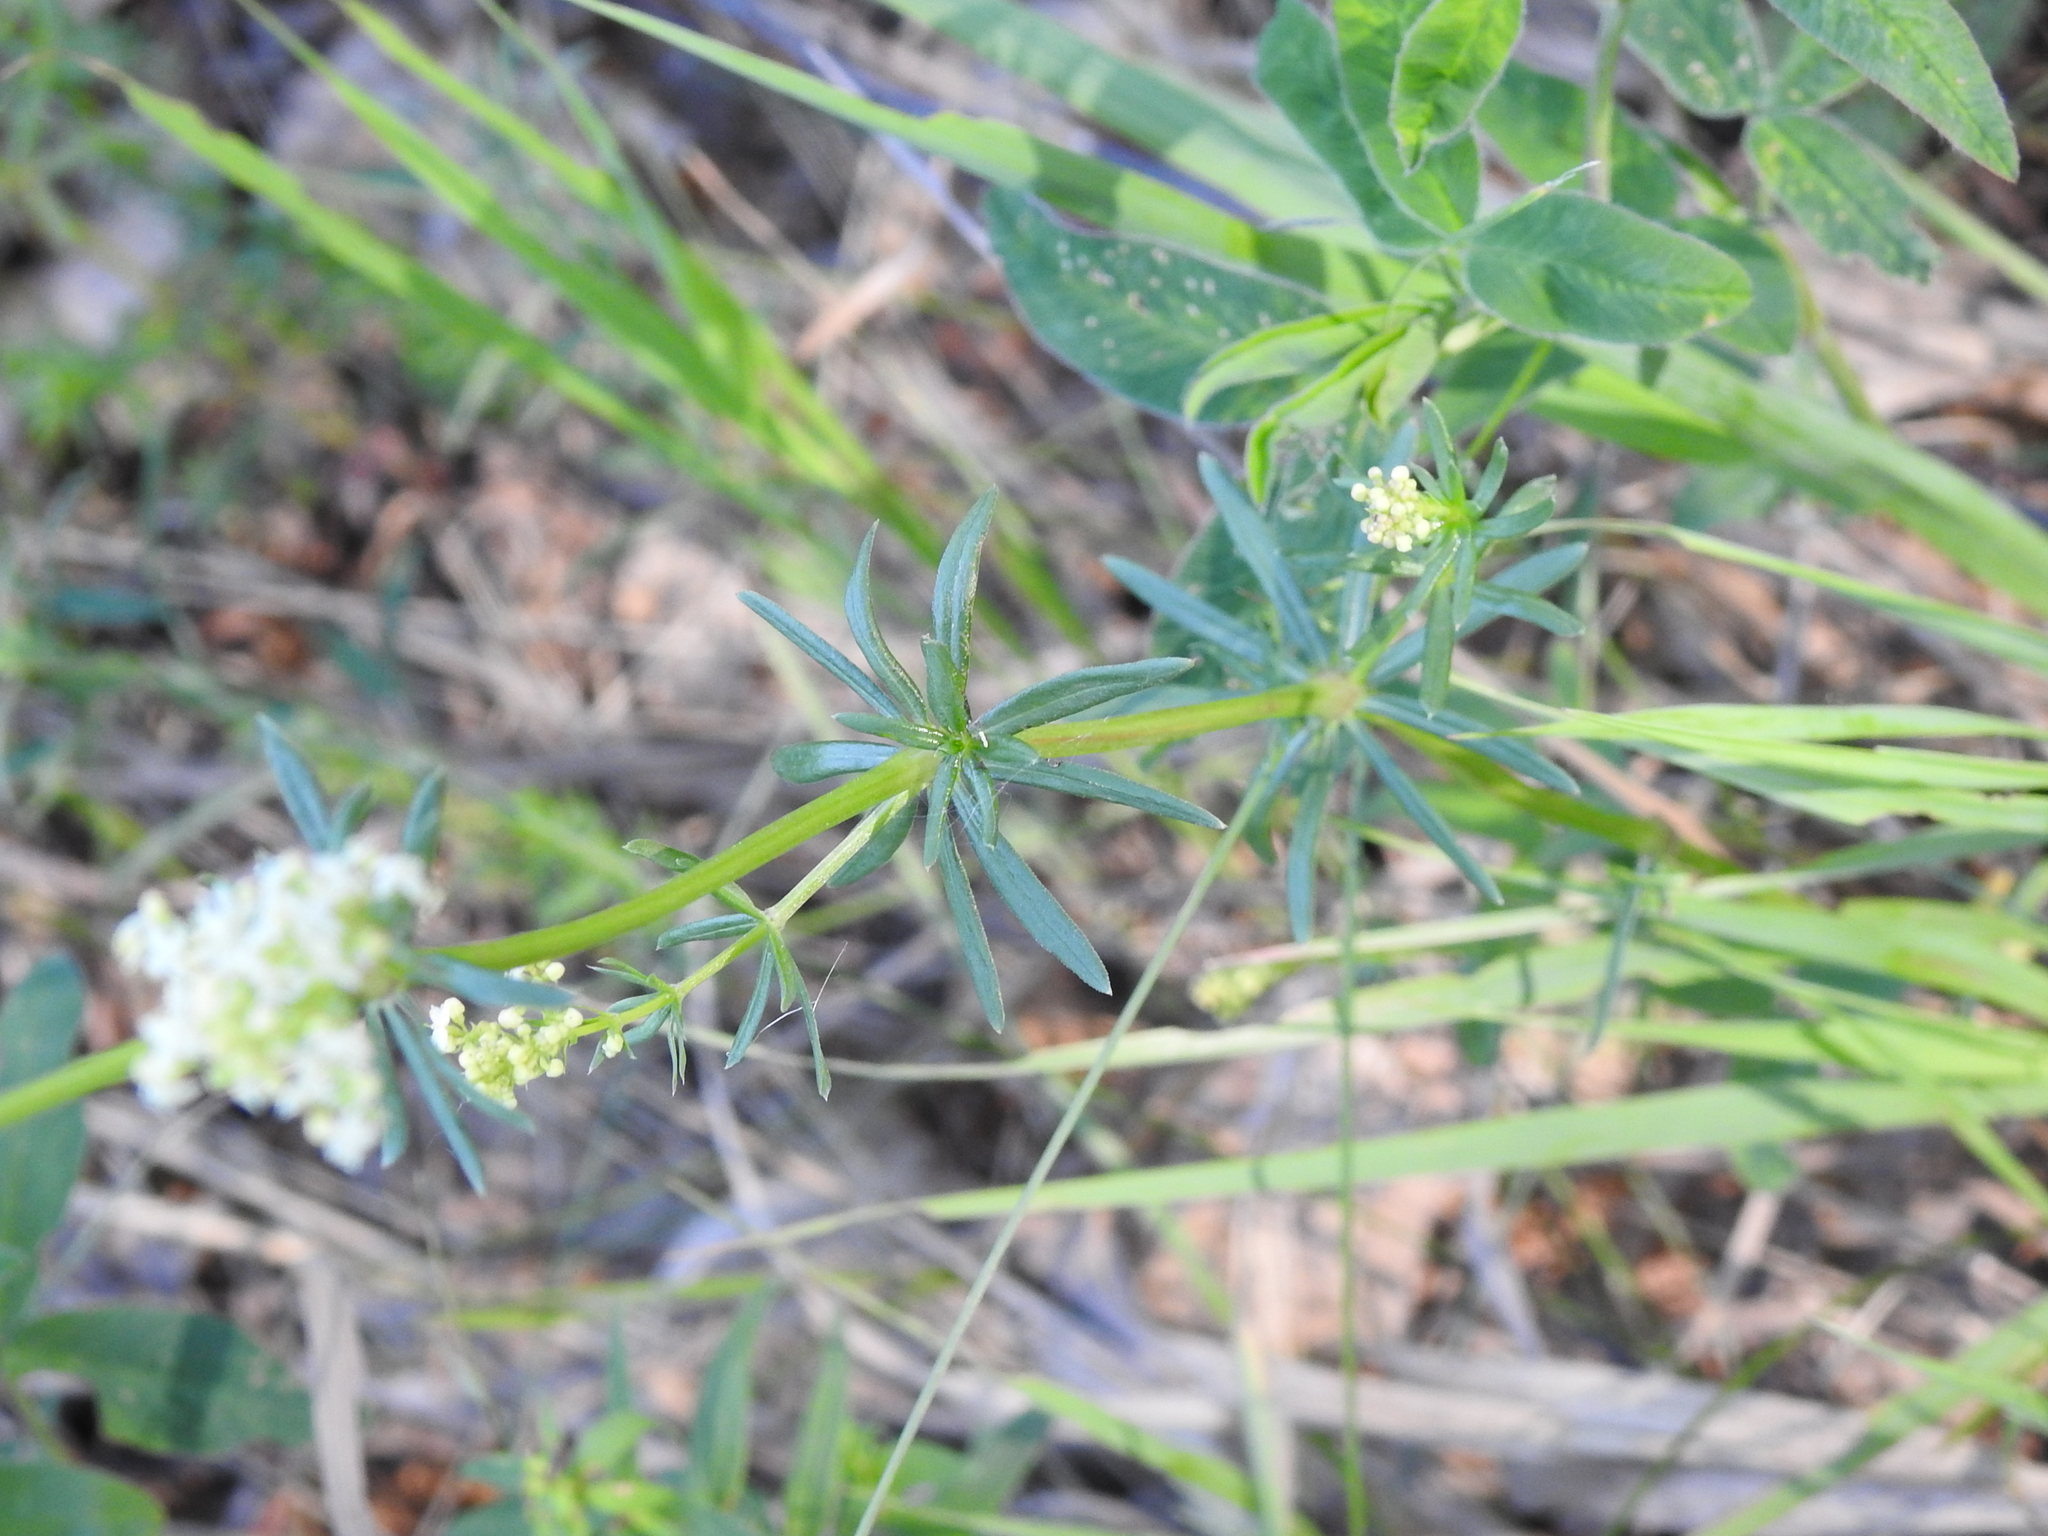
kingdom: Plantae
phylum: Tracheophyta
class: Magnoliopsida
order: Gentianales
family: Rubiaceae
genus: Galium
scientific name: Galium mollugo
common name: Hedge bedstraw
